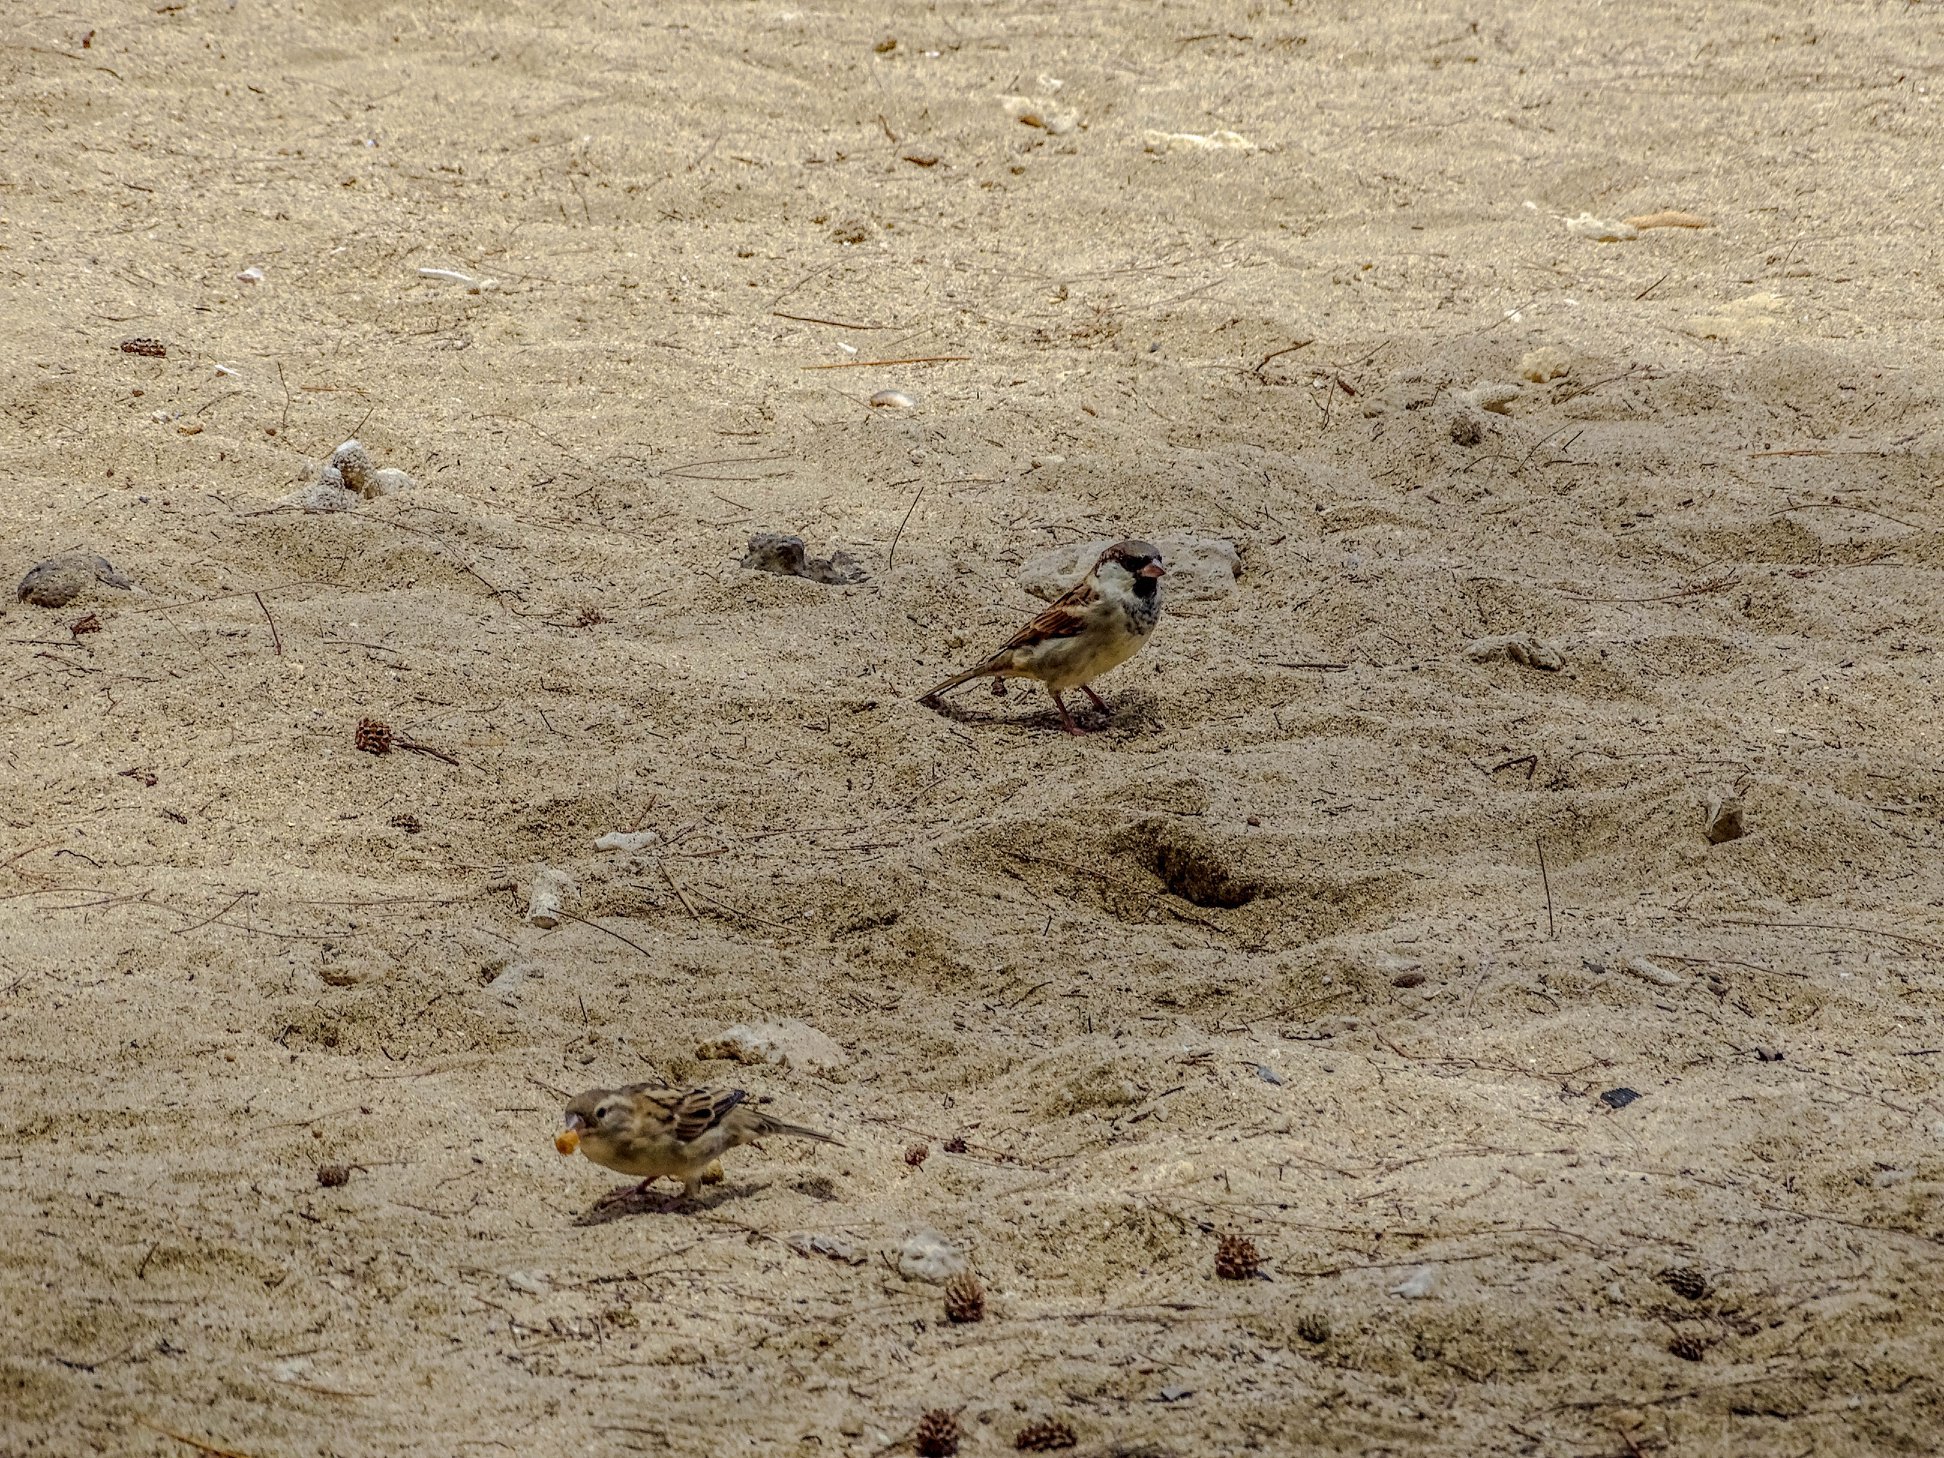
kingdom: Animalia
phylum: Chordata
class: Aves
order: Passeriformes
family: Passeridae
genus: Passer
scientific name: Passer domesticus
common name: House sparrow
